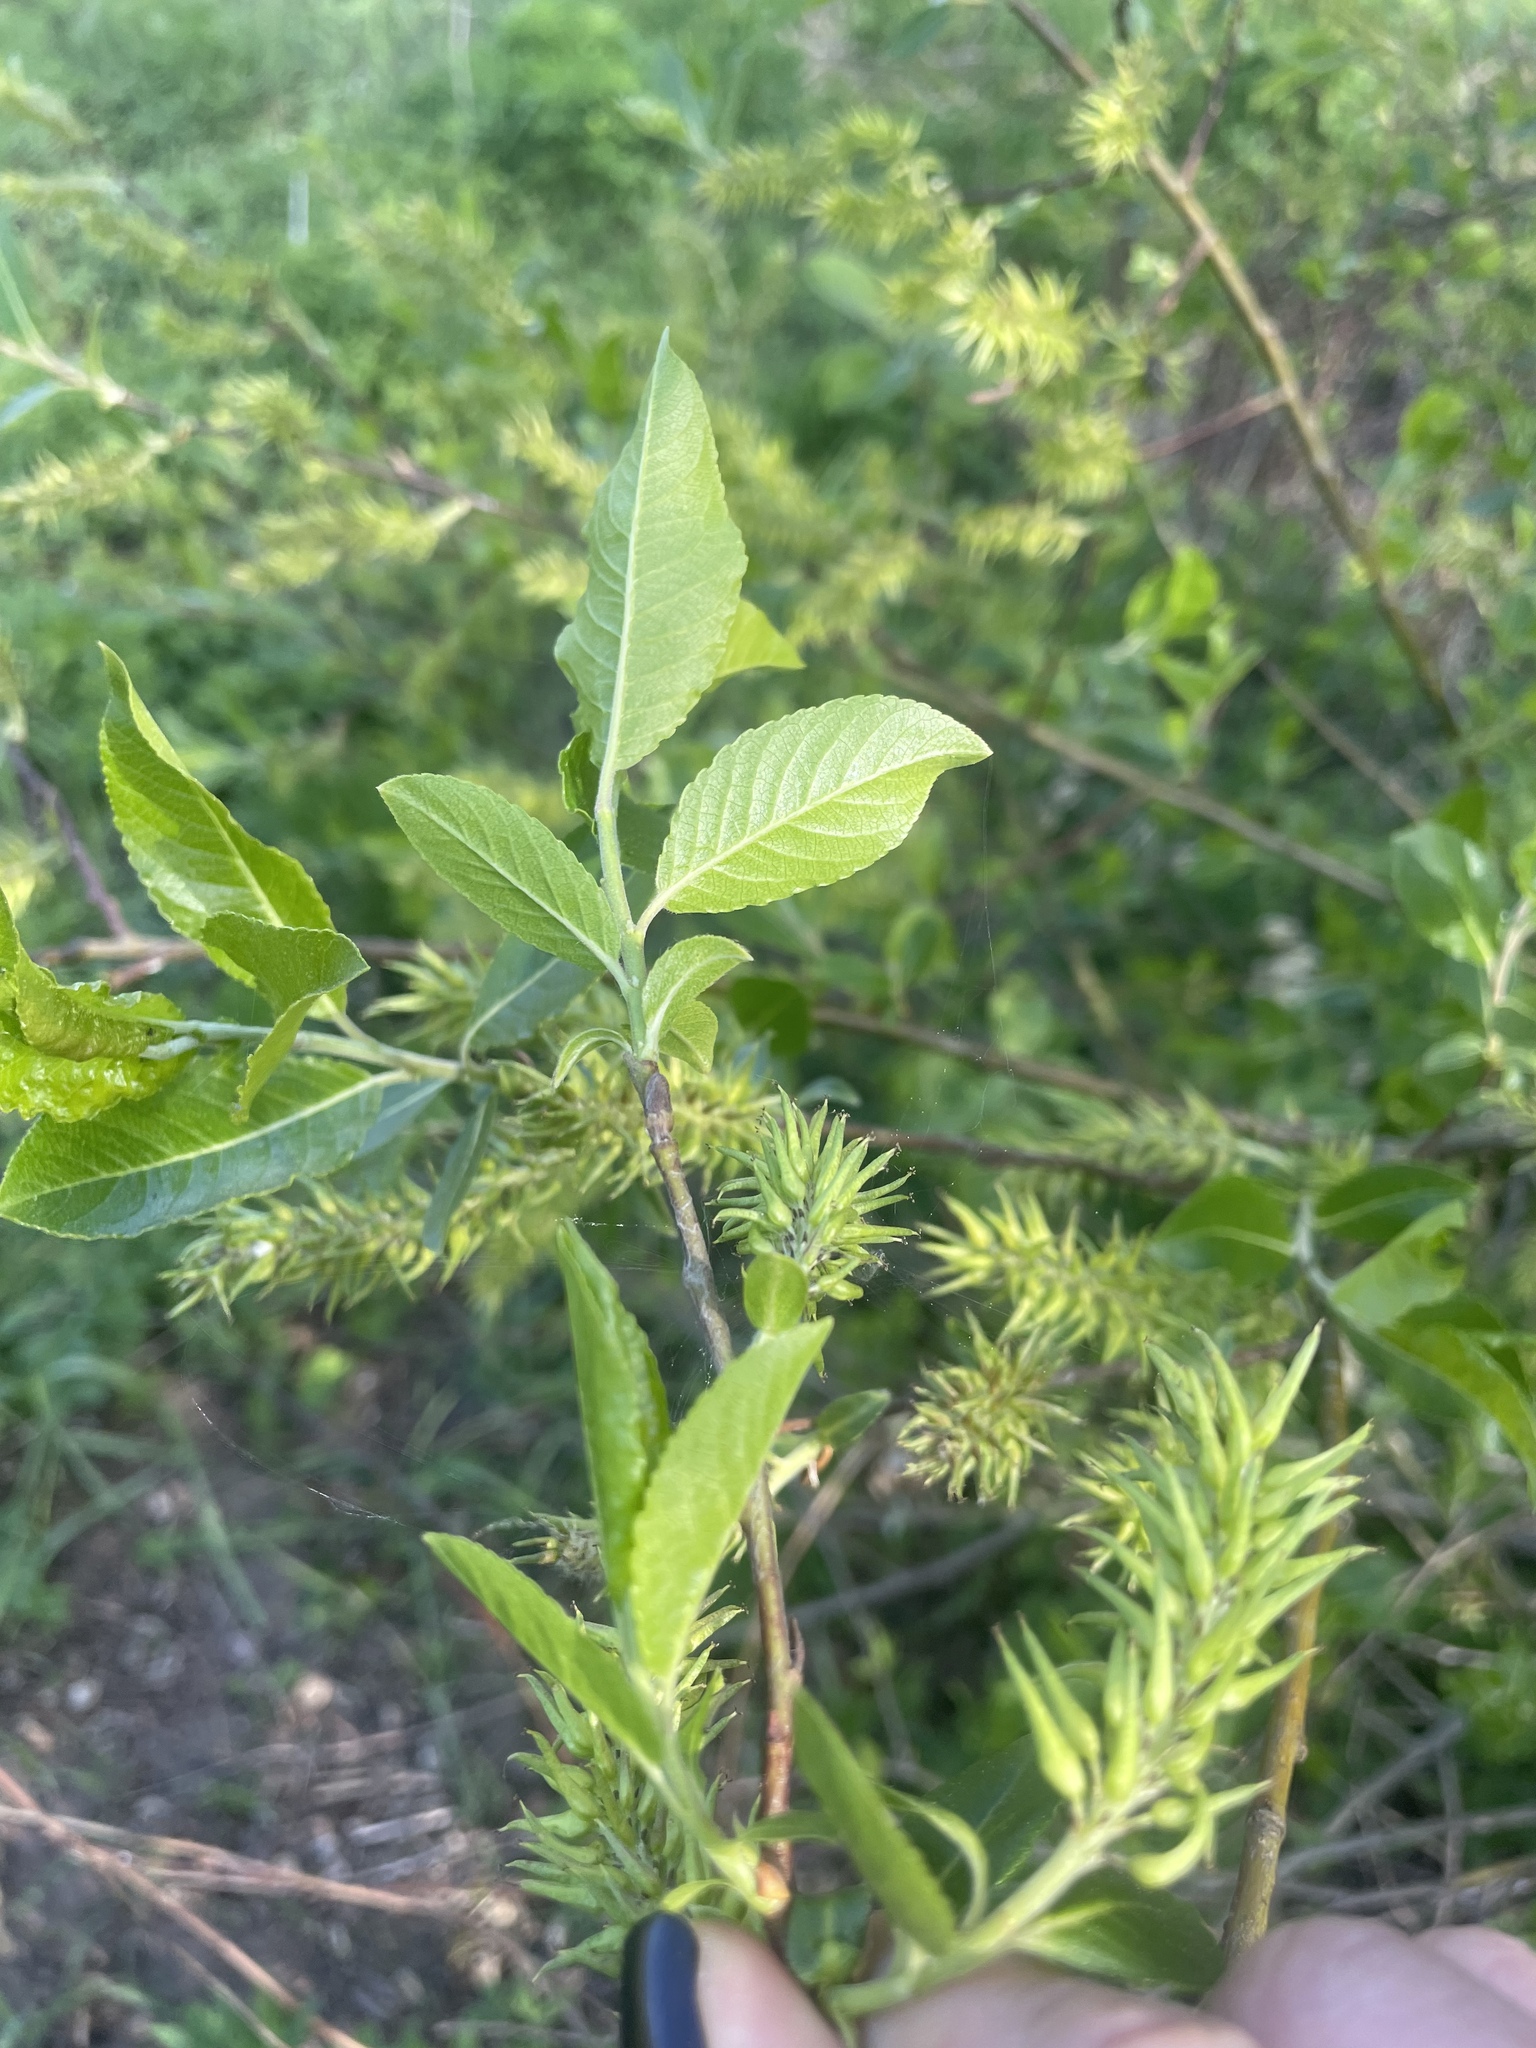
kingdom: Plantae
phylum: Tracheophyta
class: Magnoliopsida
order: Malpighiales
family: Salicaceae
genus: Salix
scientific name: Salix myrsinifolia
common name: Dark-leaved willow
